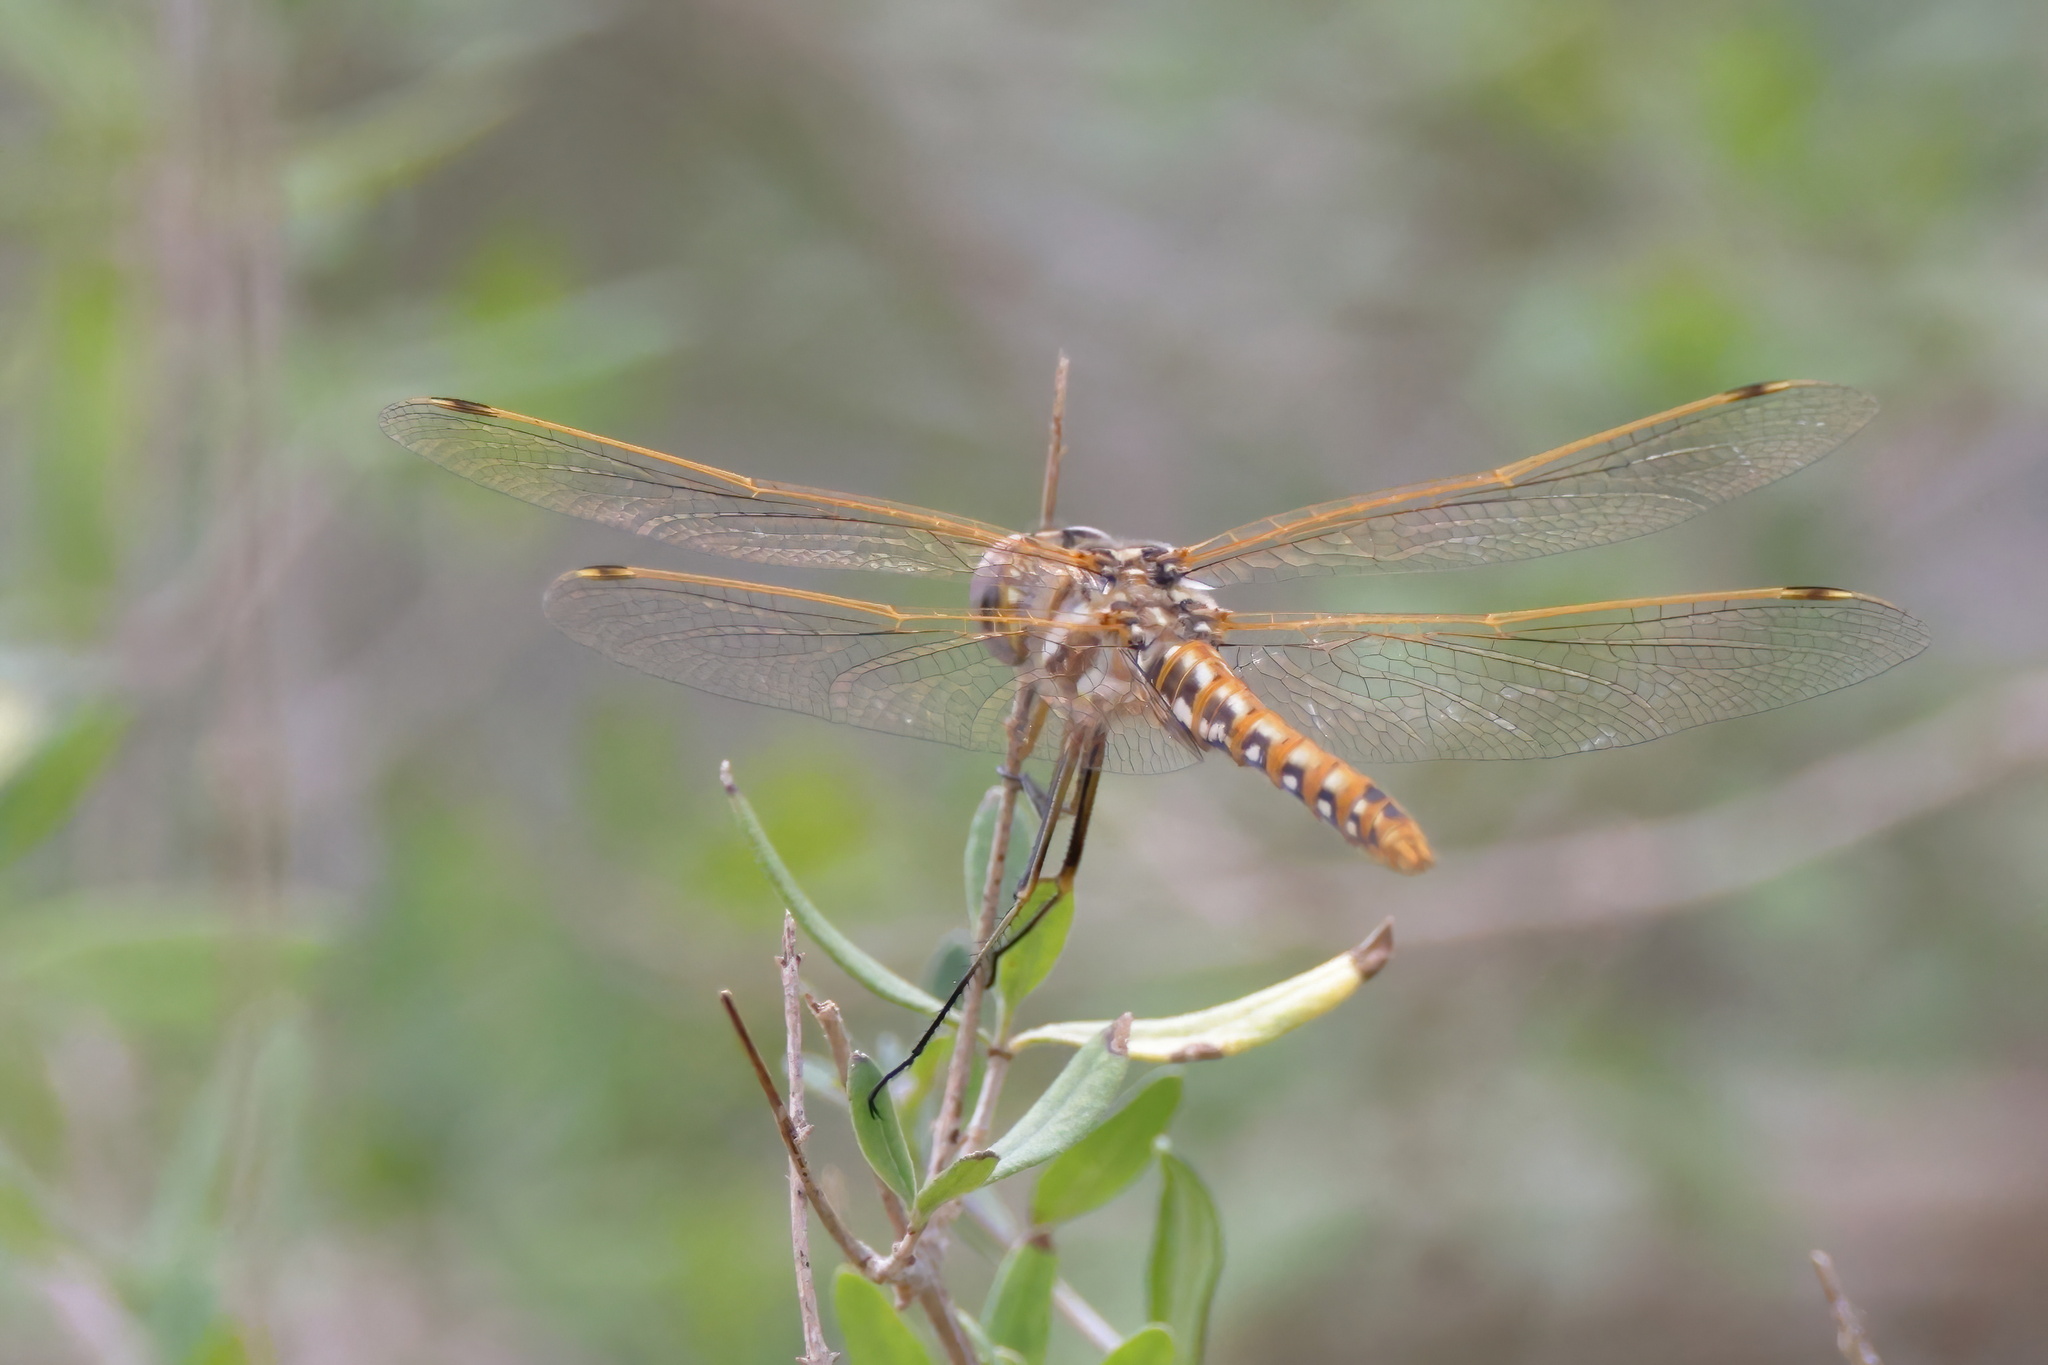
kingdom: Animalia
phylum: Arthropoda
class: Insecta
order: Odonata
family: Libellulidae
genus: Sympetrum
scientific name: Sympetrum corruptum
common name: Variegated meadowhawk
